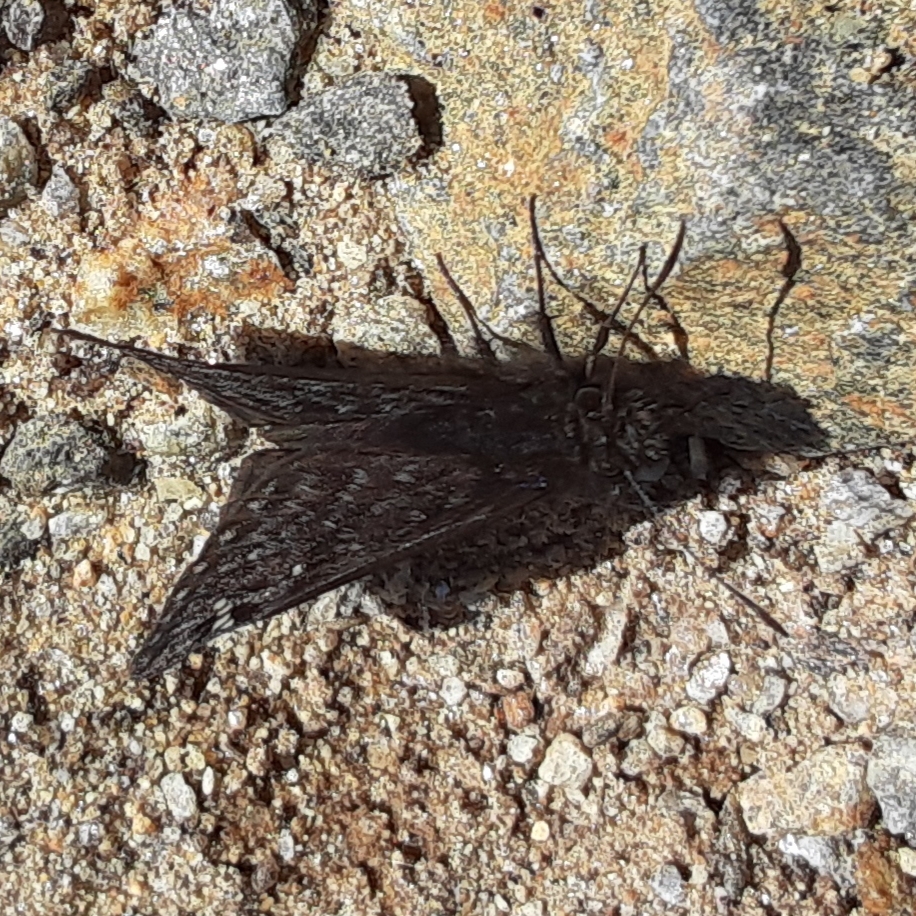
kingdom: Animalia
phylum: Arthropoda
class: Insecta
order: Lepidoptera
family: Hesperiidae
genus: Erynnis
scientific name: Erynnis juvenalis
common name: Juvenal's duskywing
